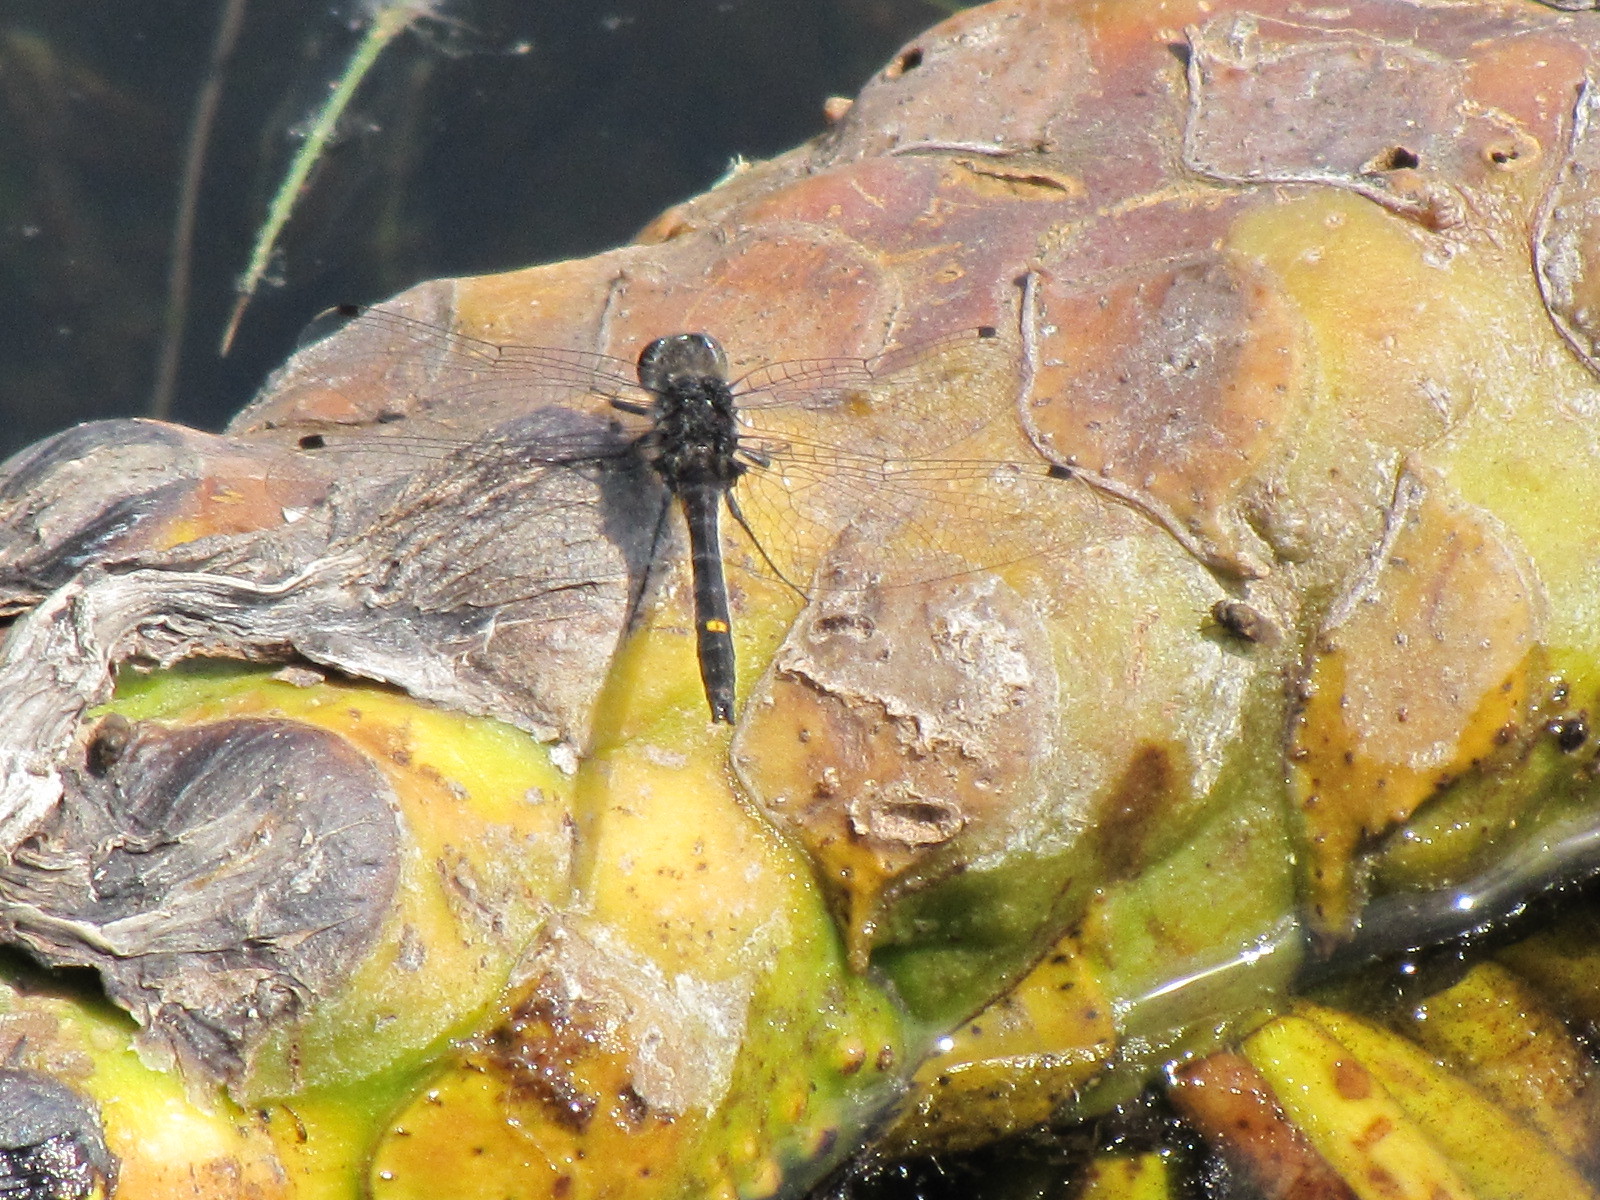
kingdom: Animalia
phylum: Arthropoda
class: Insecta
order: Odonata
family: Libellulidae
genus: Leucorrhinia
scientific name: Leucorrhinia intacta
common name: Dot-tailed whiteface
